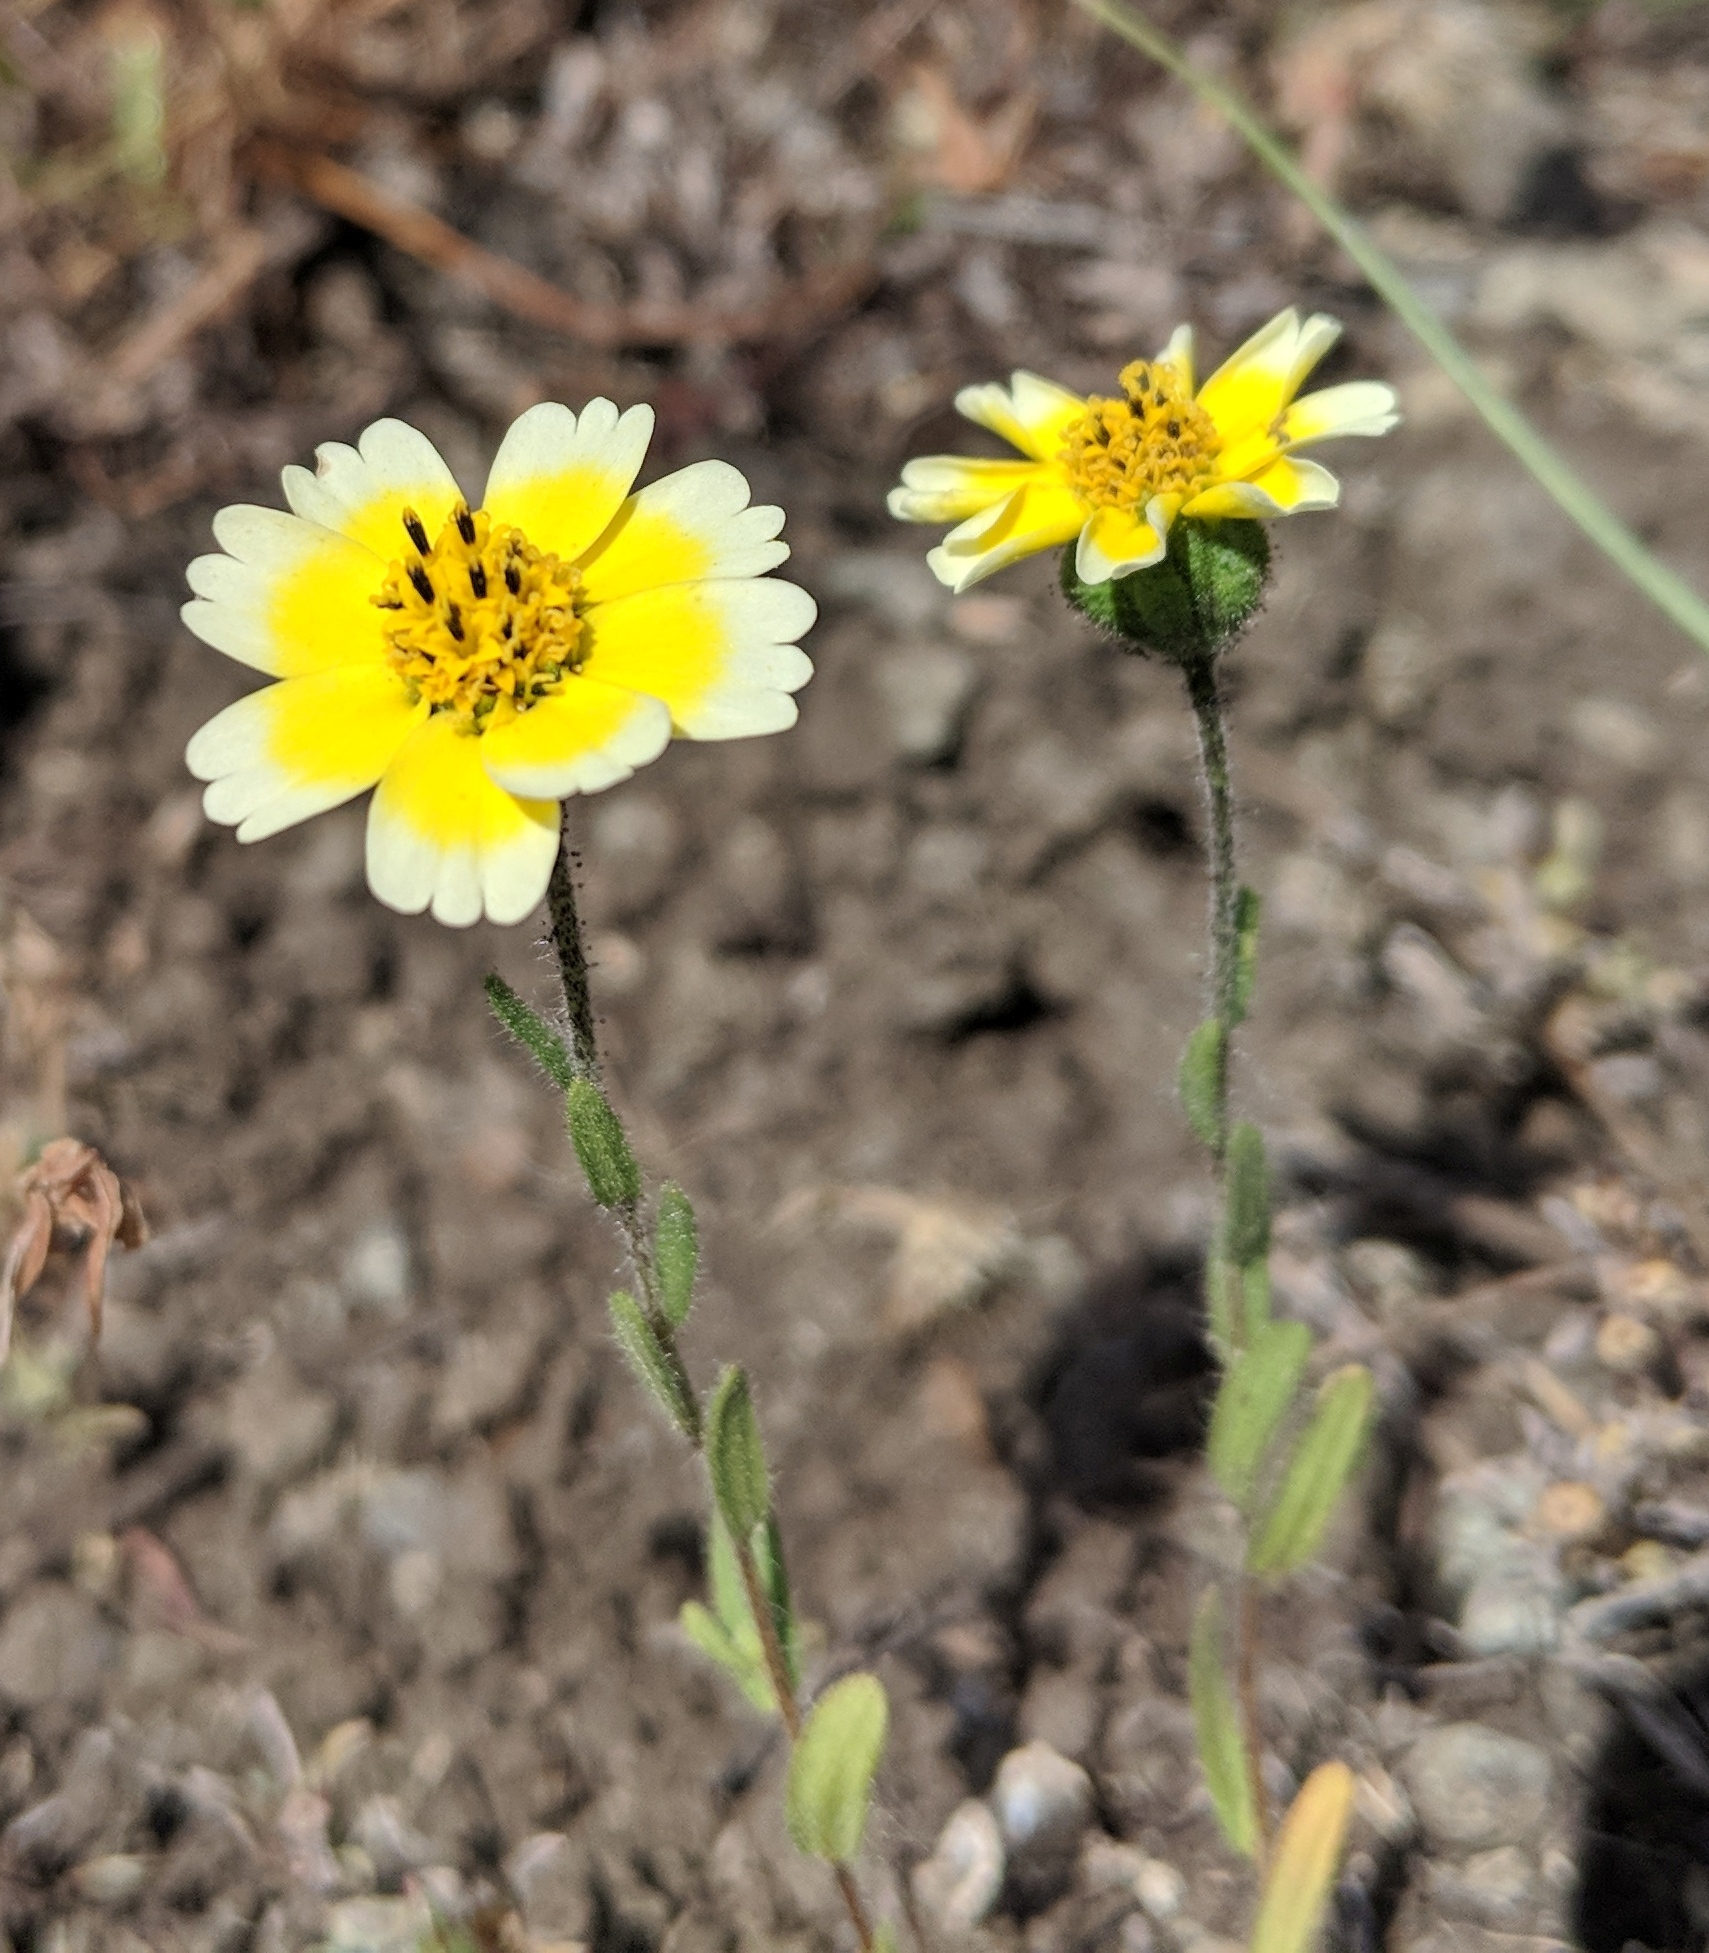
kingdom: Plantae
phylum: Tracheophyta
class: Magnoliopsida
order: Asterales
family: Asteraceae
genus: Layia
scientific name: Layia gaillardioides
